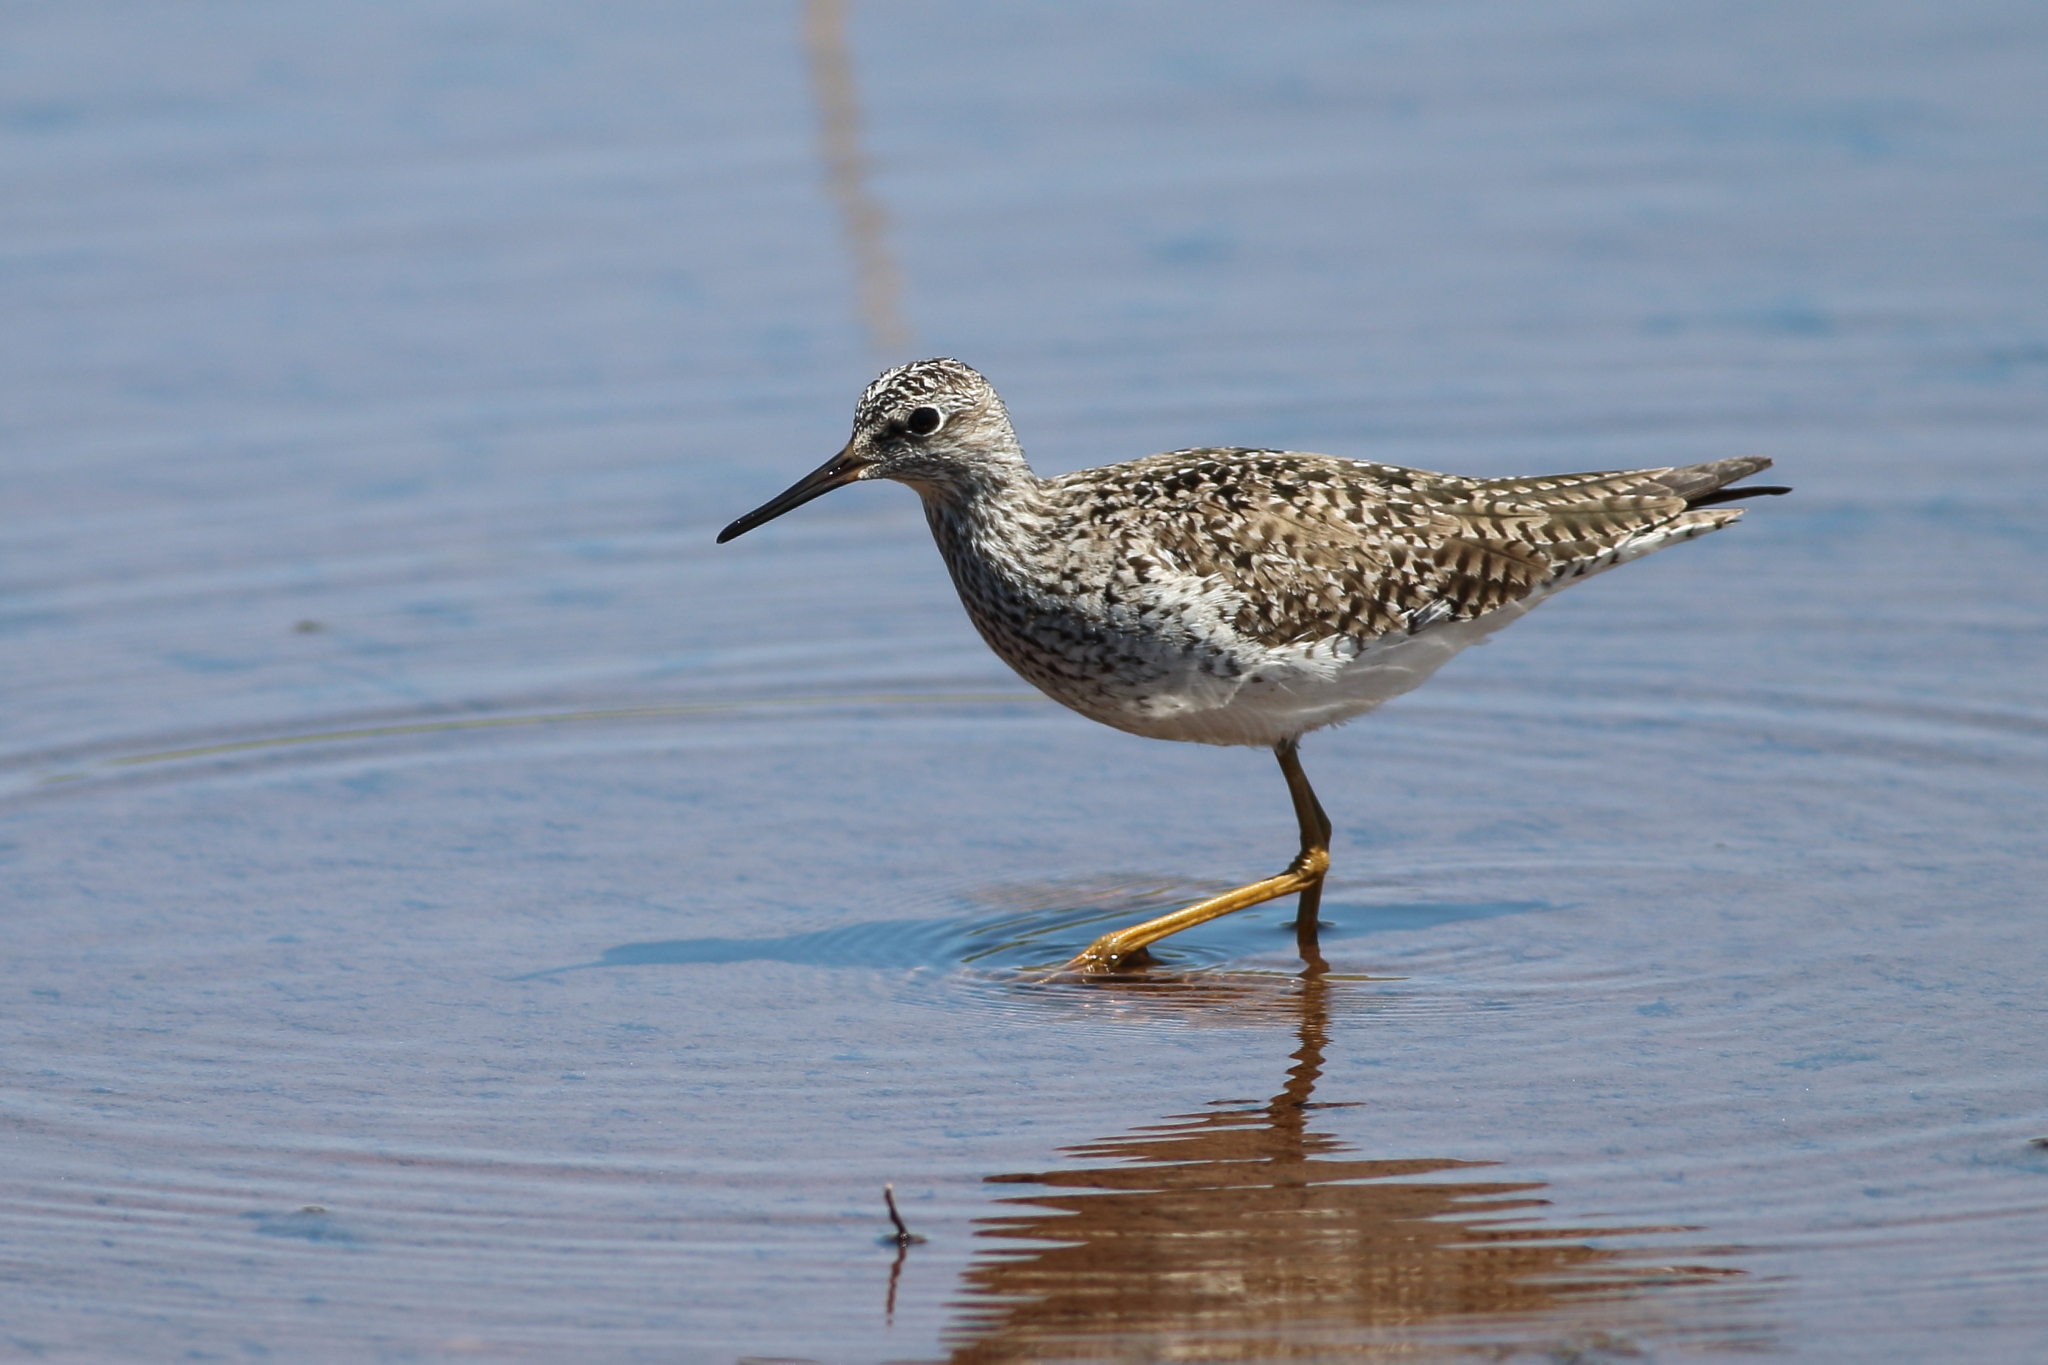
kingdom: Animalia
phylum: Chordata
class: Aves
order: Charadriiformes
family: Scolopacidae
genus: Tringa
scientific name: Tringa flavipes
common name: Lesser yellowlegs
